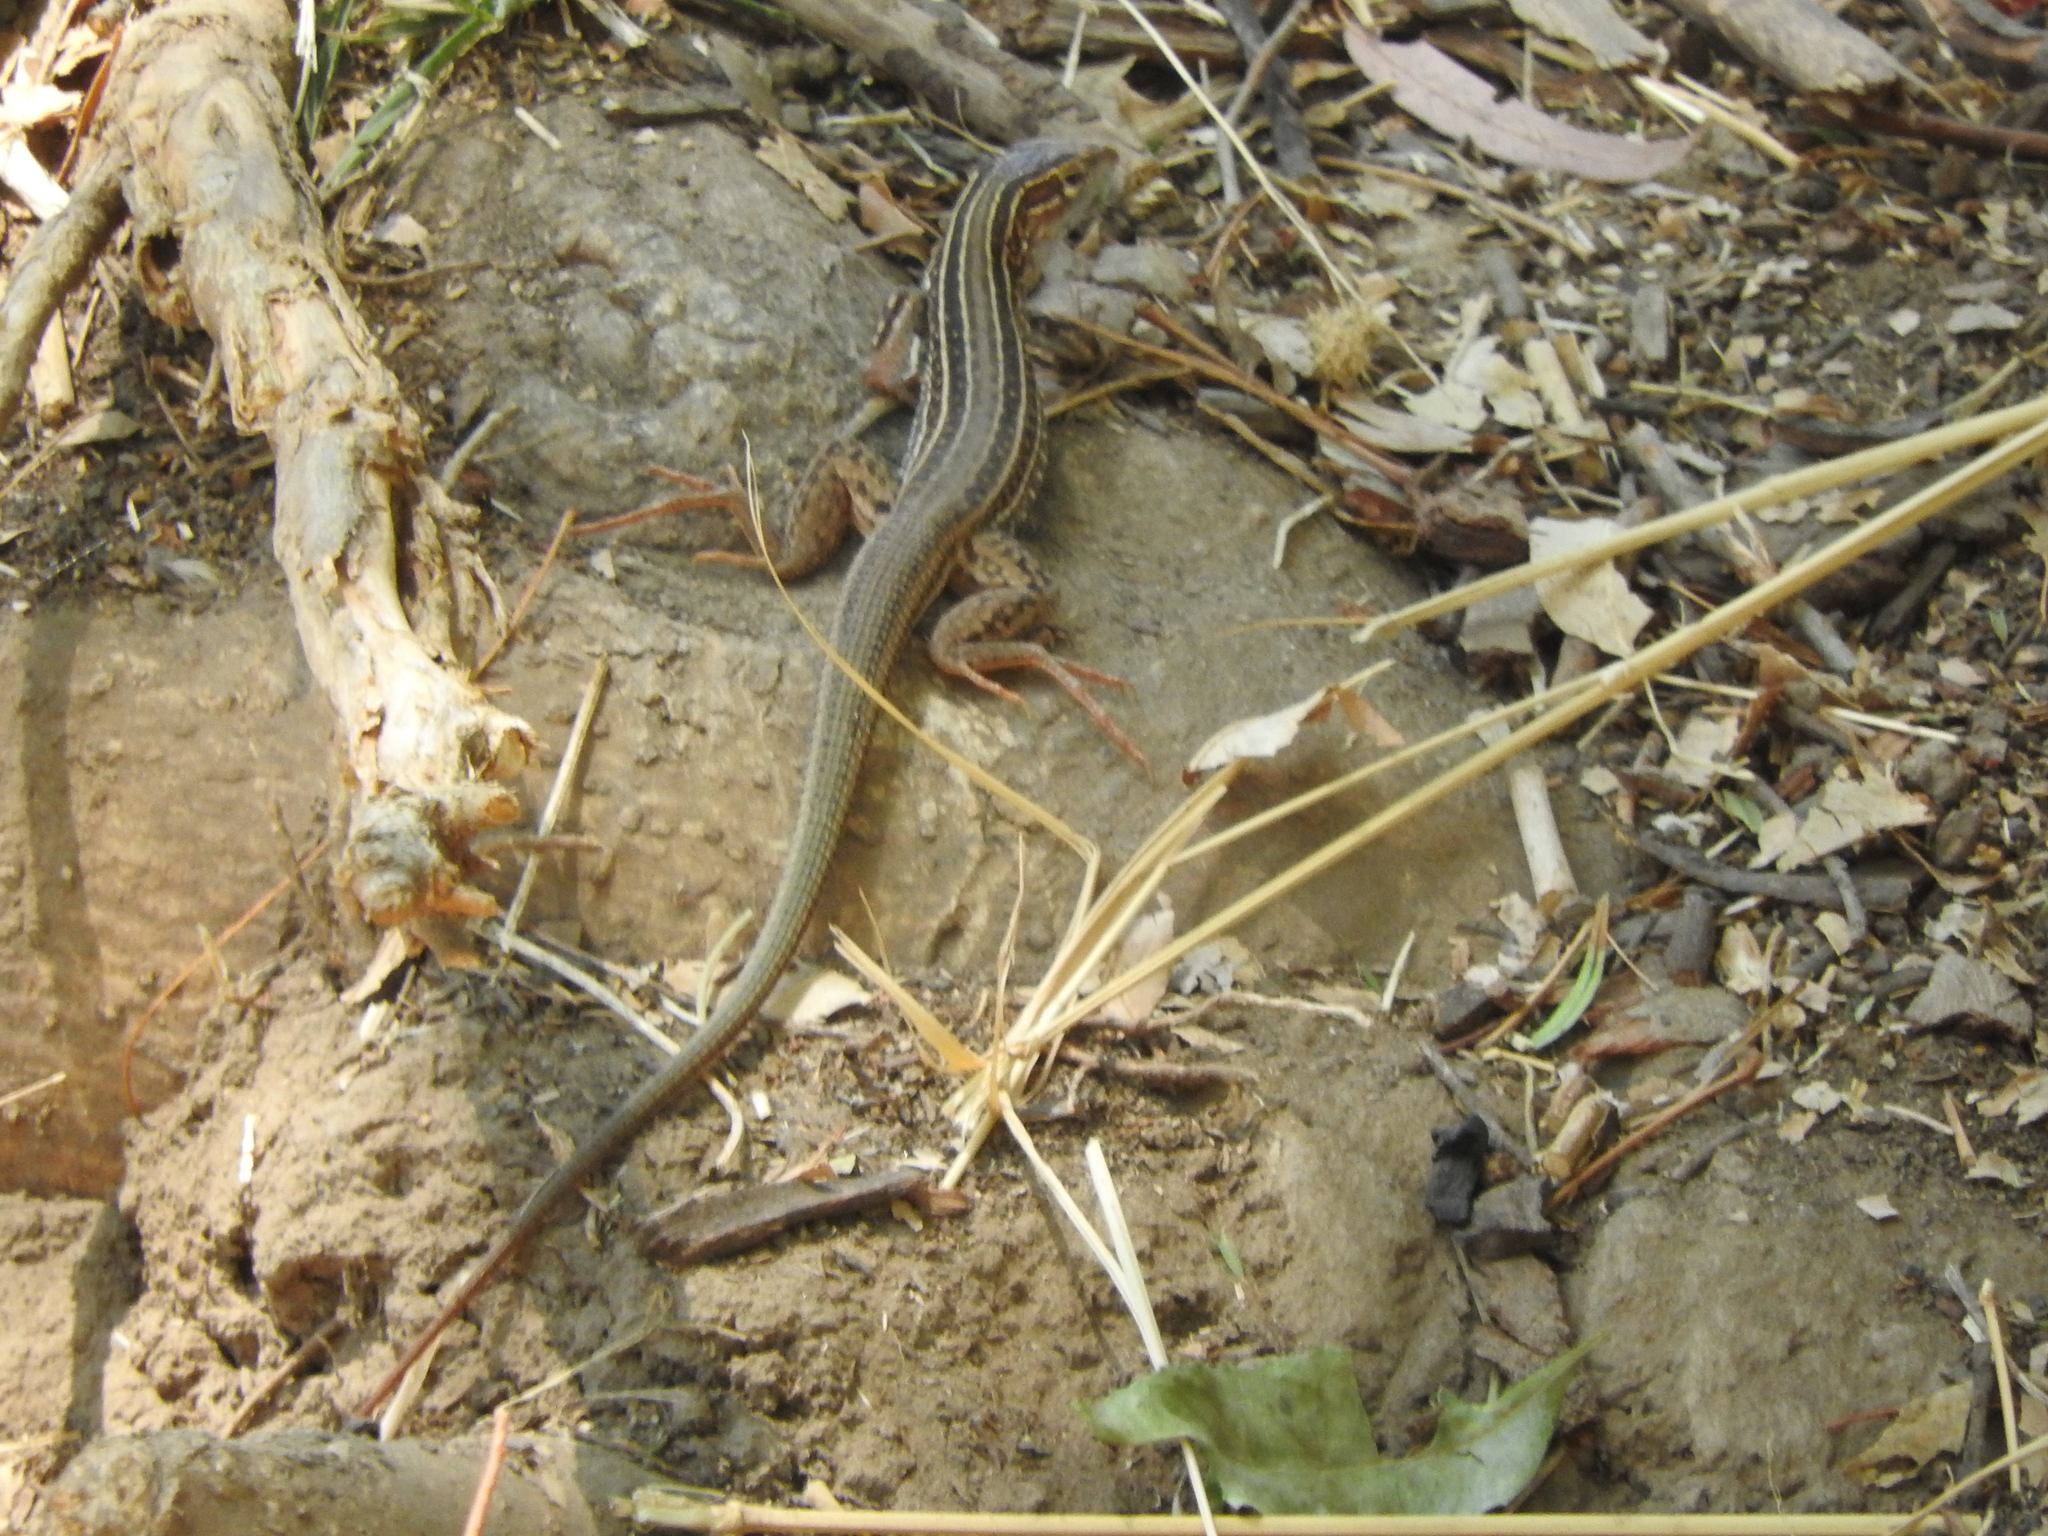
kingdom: Animalia
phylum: Chordata
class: Squamata
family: Teiidae
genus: Aspidoscelis
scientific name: Aspidoscelis gularis
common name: Eastern spotted whiptail
